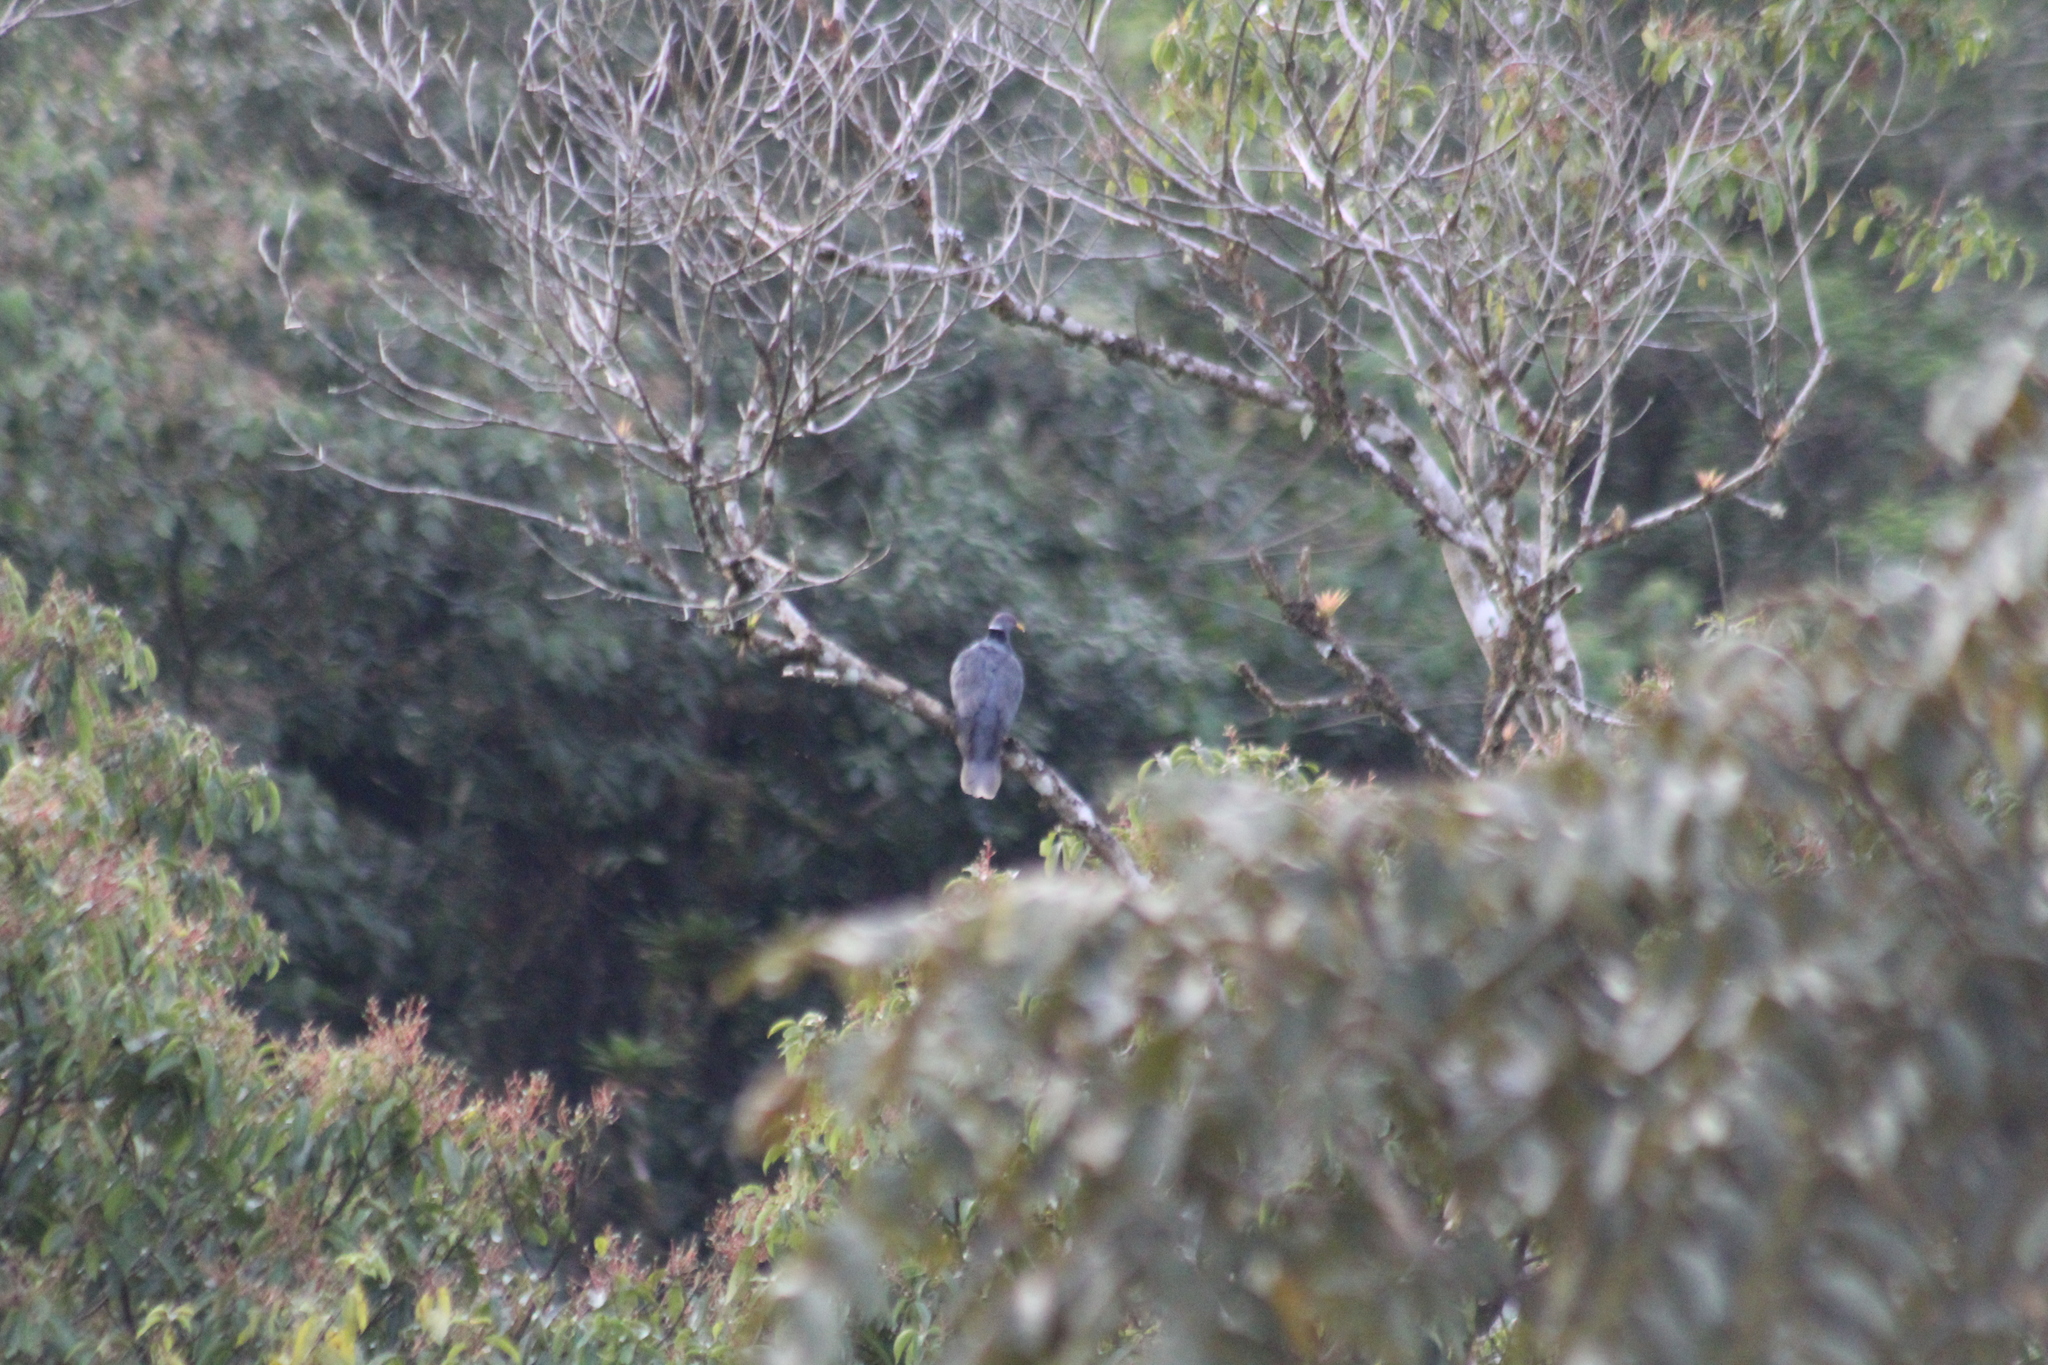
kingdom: Animalia
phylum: Chordata
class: Aves
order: Columbiformes
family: Columbidae
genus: Patagioenas
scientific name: Patagioenas fasciata
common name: Band-tailed pigeon
